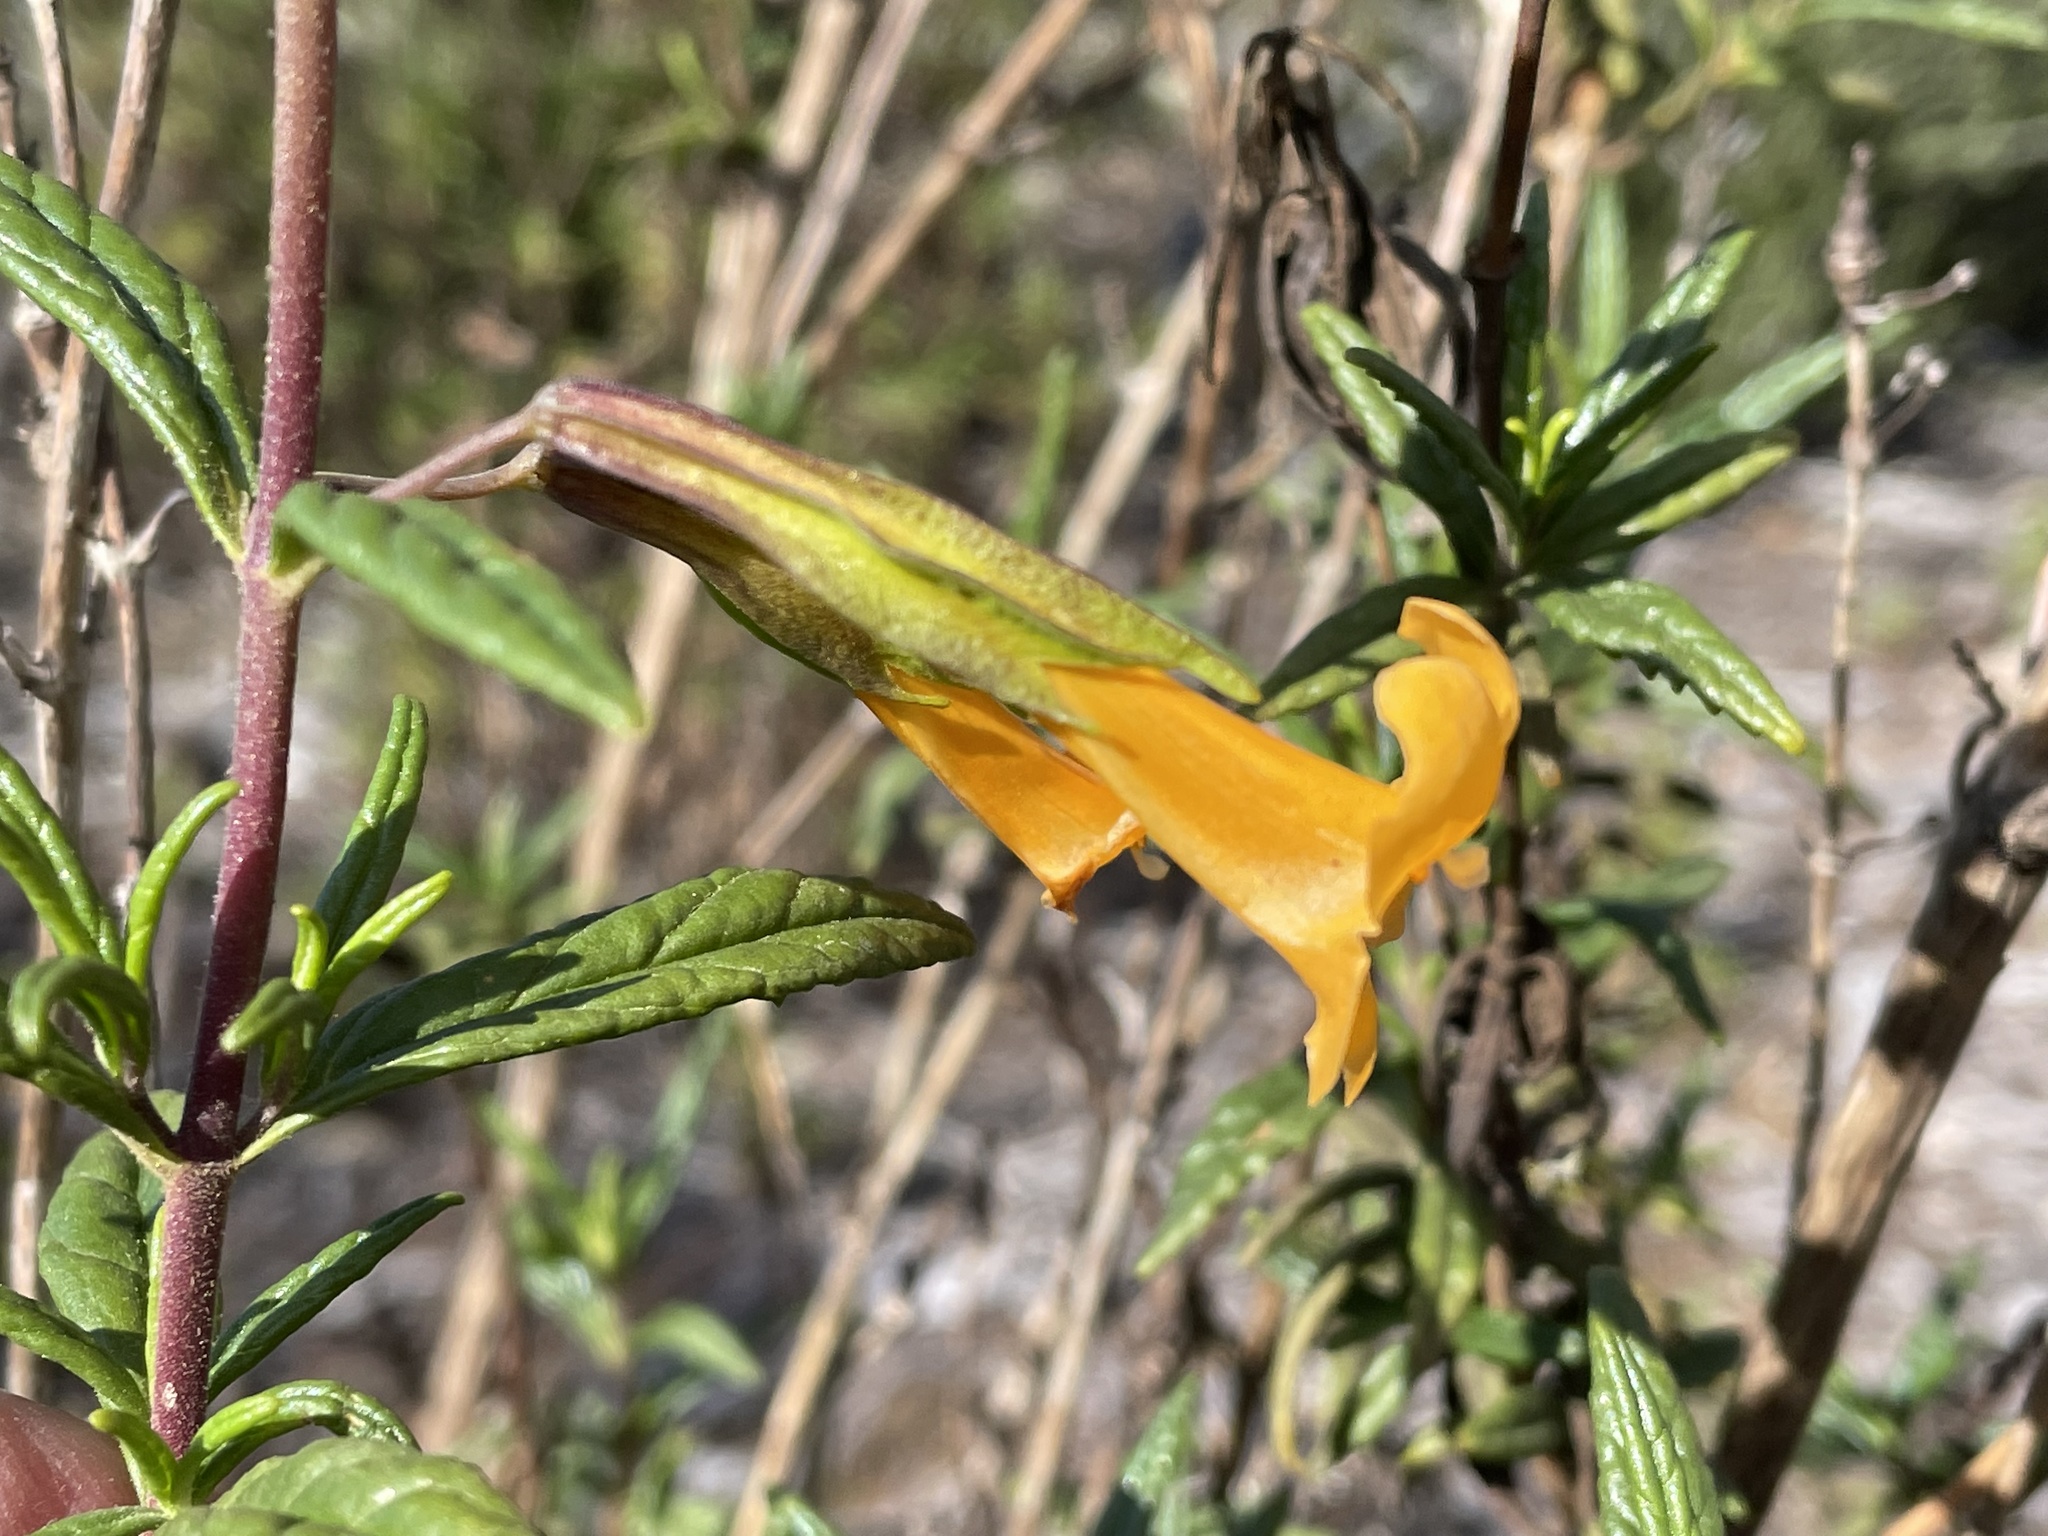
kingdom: Plantae
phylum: Tracheophyta
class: Magnoliopsida
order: Lamiales
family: Phrymaceae
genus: Diplacus
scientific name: Diplacus aurantiacus
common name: Bush monkey-flower
